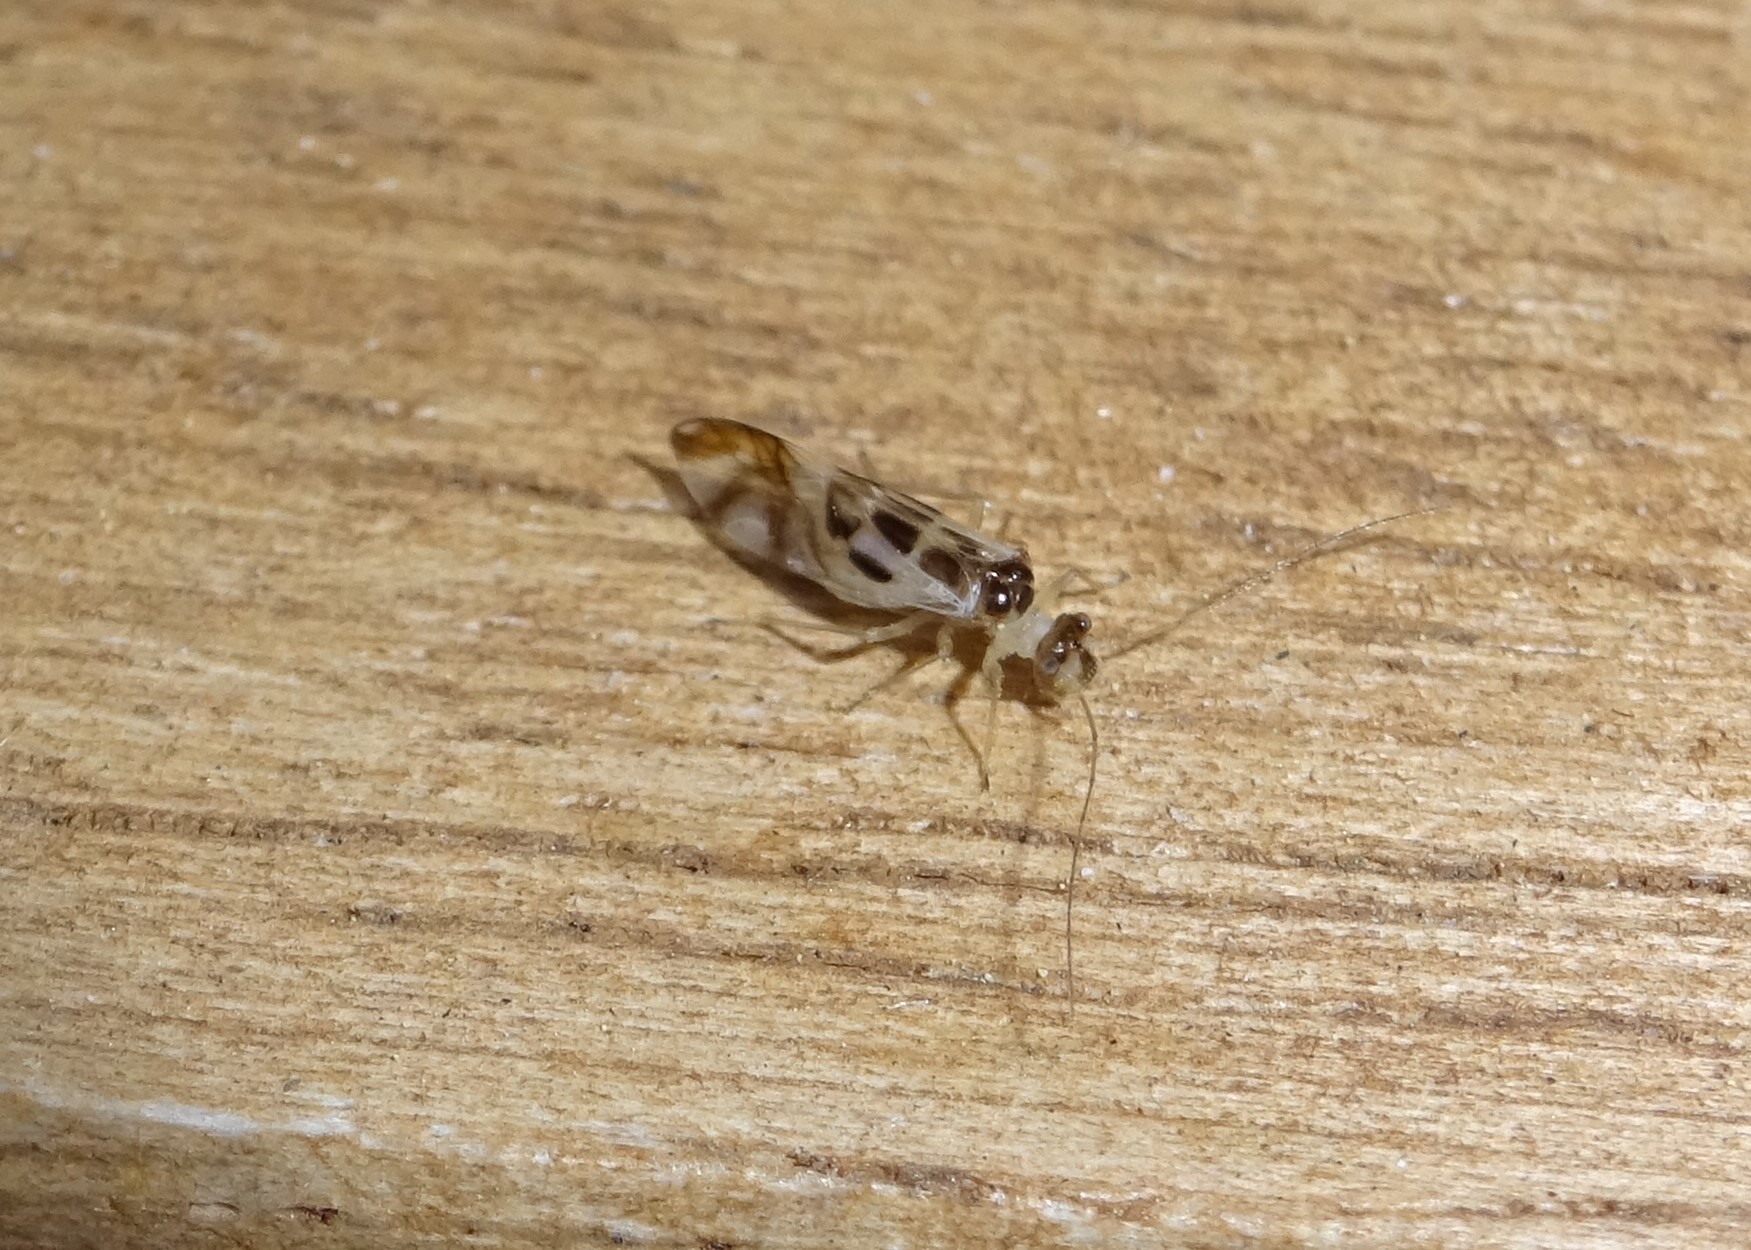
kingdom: Animalia
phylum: Arthropoda
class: Insecta
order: Psocodea
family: Stenopsocidae
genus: Graphopsocus
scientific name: Graphopsocus cruciatus
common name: Lizard bark louse
